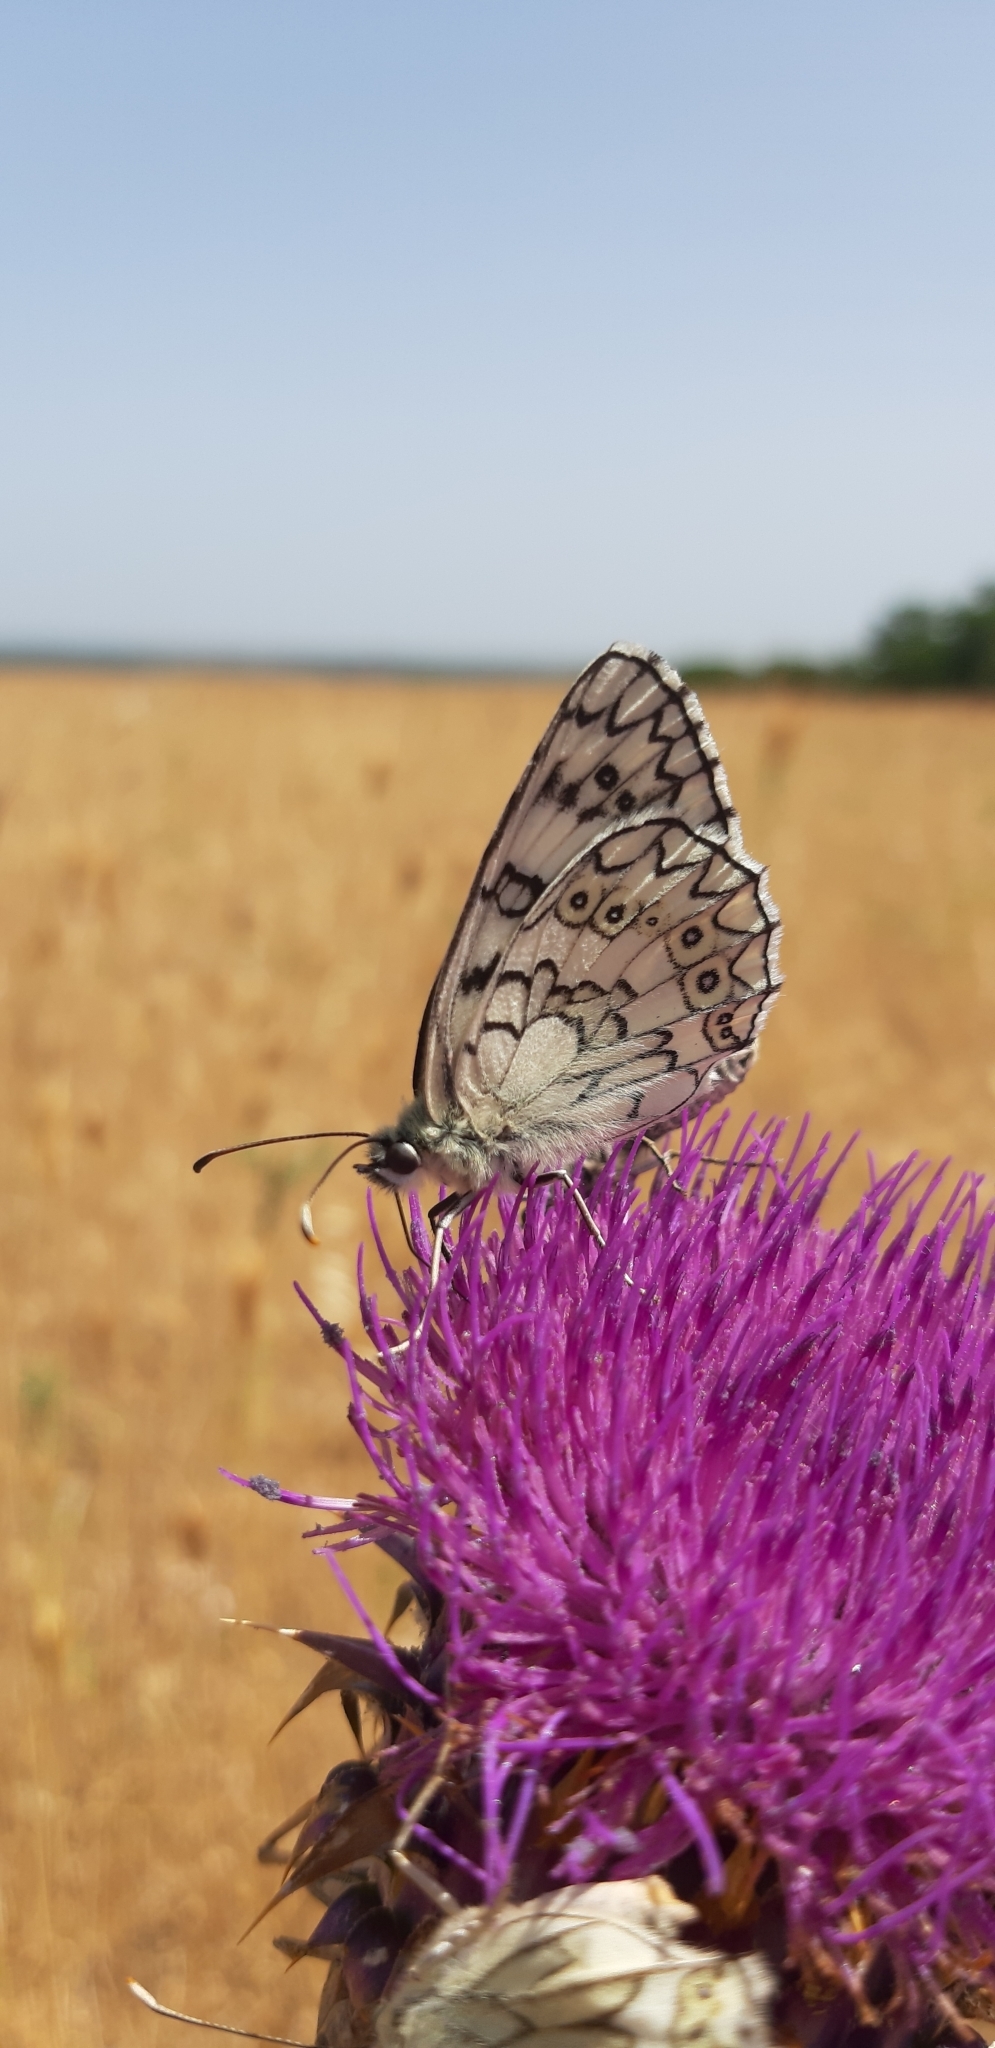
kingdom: Animalia
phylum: Arthropoda
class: Insecta
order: Lepidoptera
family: Nymphalidae
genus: Melanargia
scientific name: Melanargia japygia
